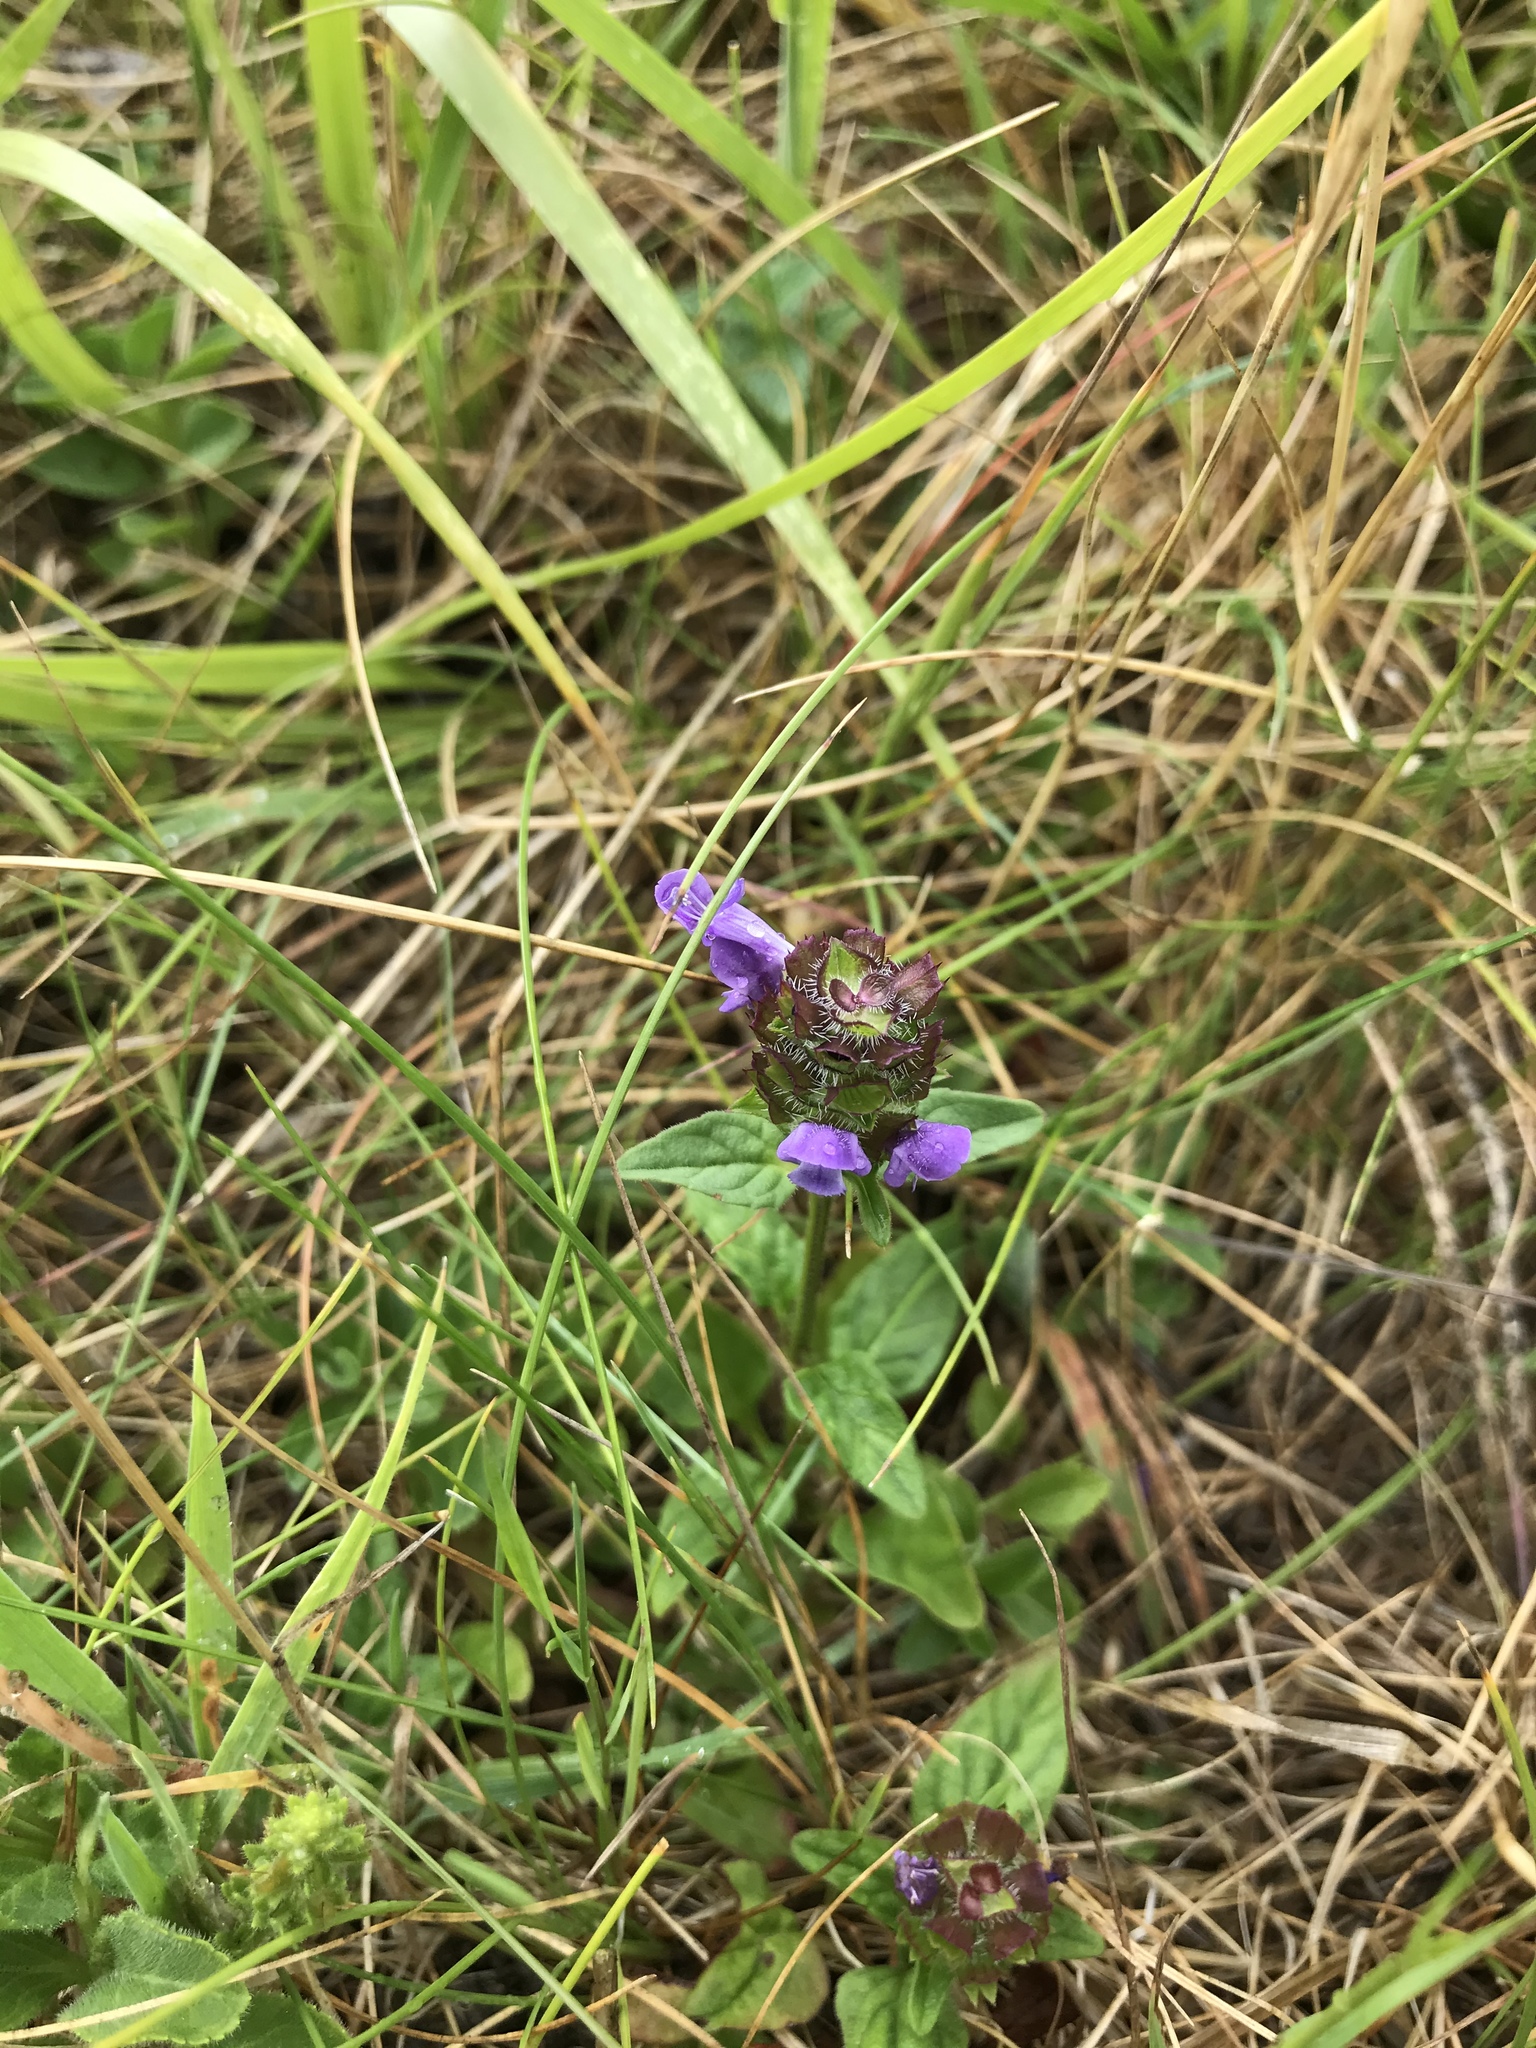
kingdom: Plantae
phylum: Tracheophyta
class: Magnoliopsida
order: Lamiales
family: Lamiaceae
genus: Prunella
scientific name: Prunella vulgaris
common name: Heal-all
